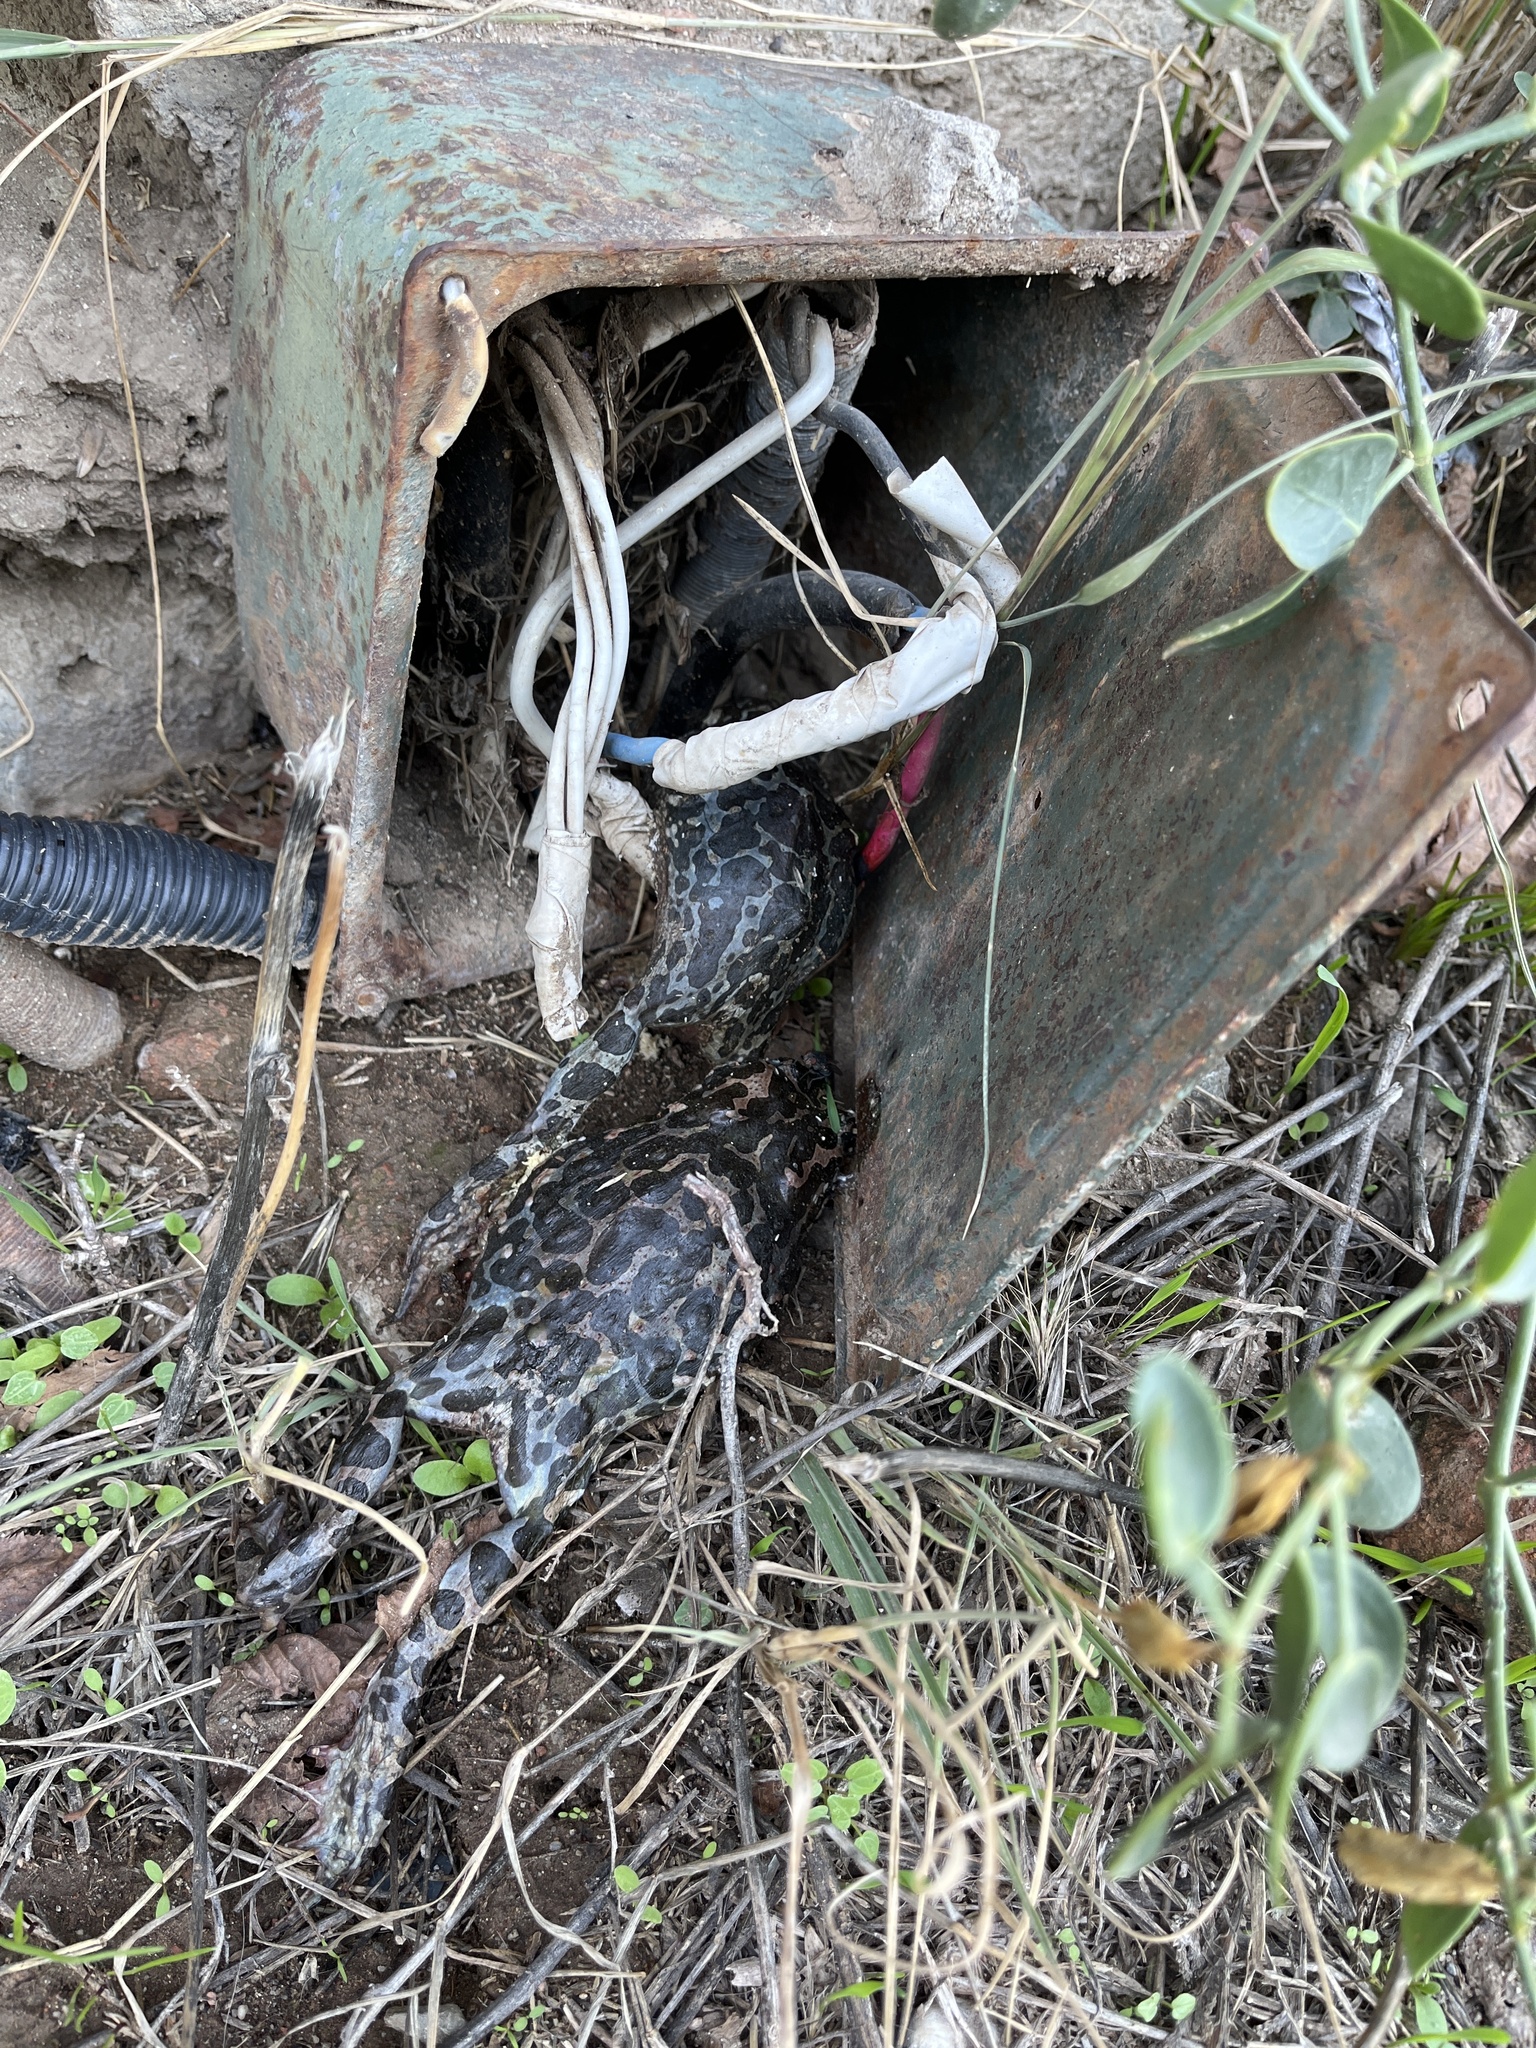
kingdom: Animalia
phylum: Chordata
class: Amphibia
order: Anura
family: Bufonidae
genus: Bufotes
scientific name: Bufotes viridis
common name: European green toad
